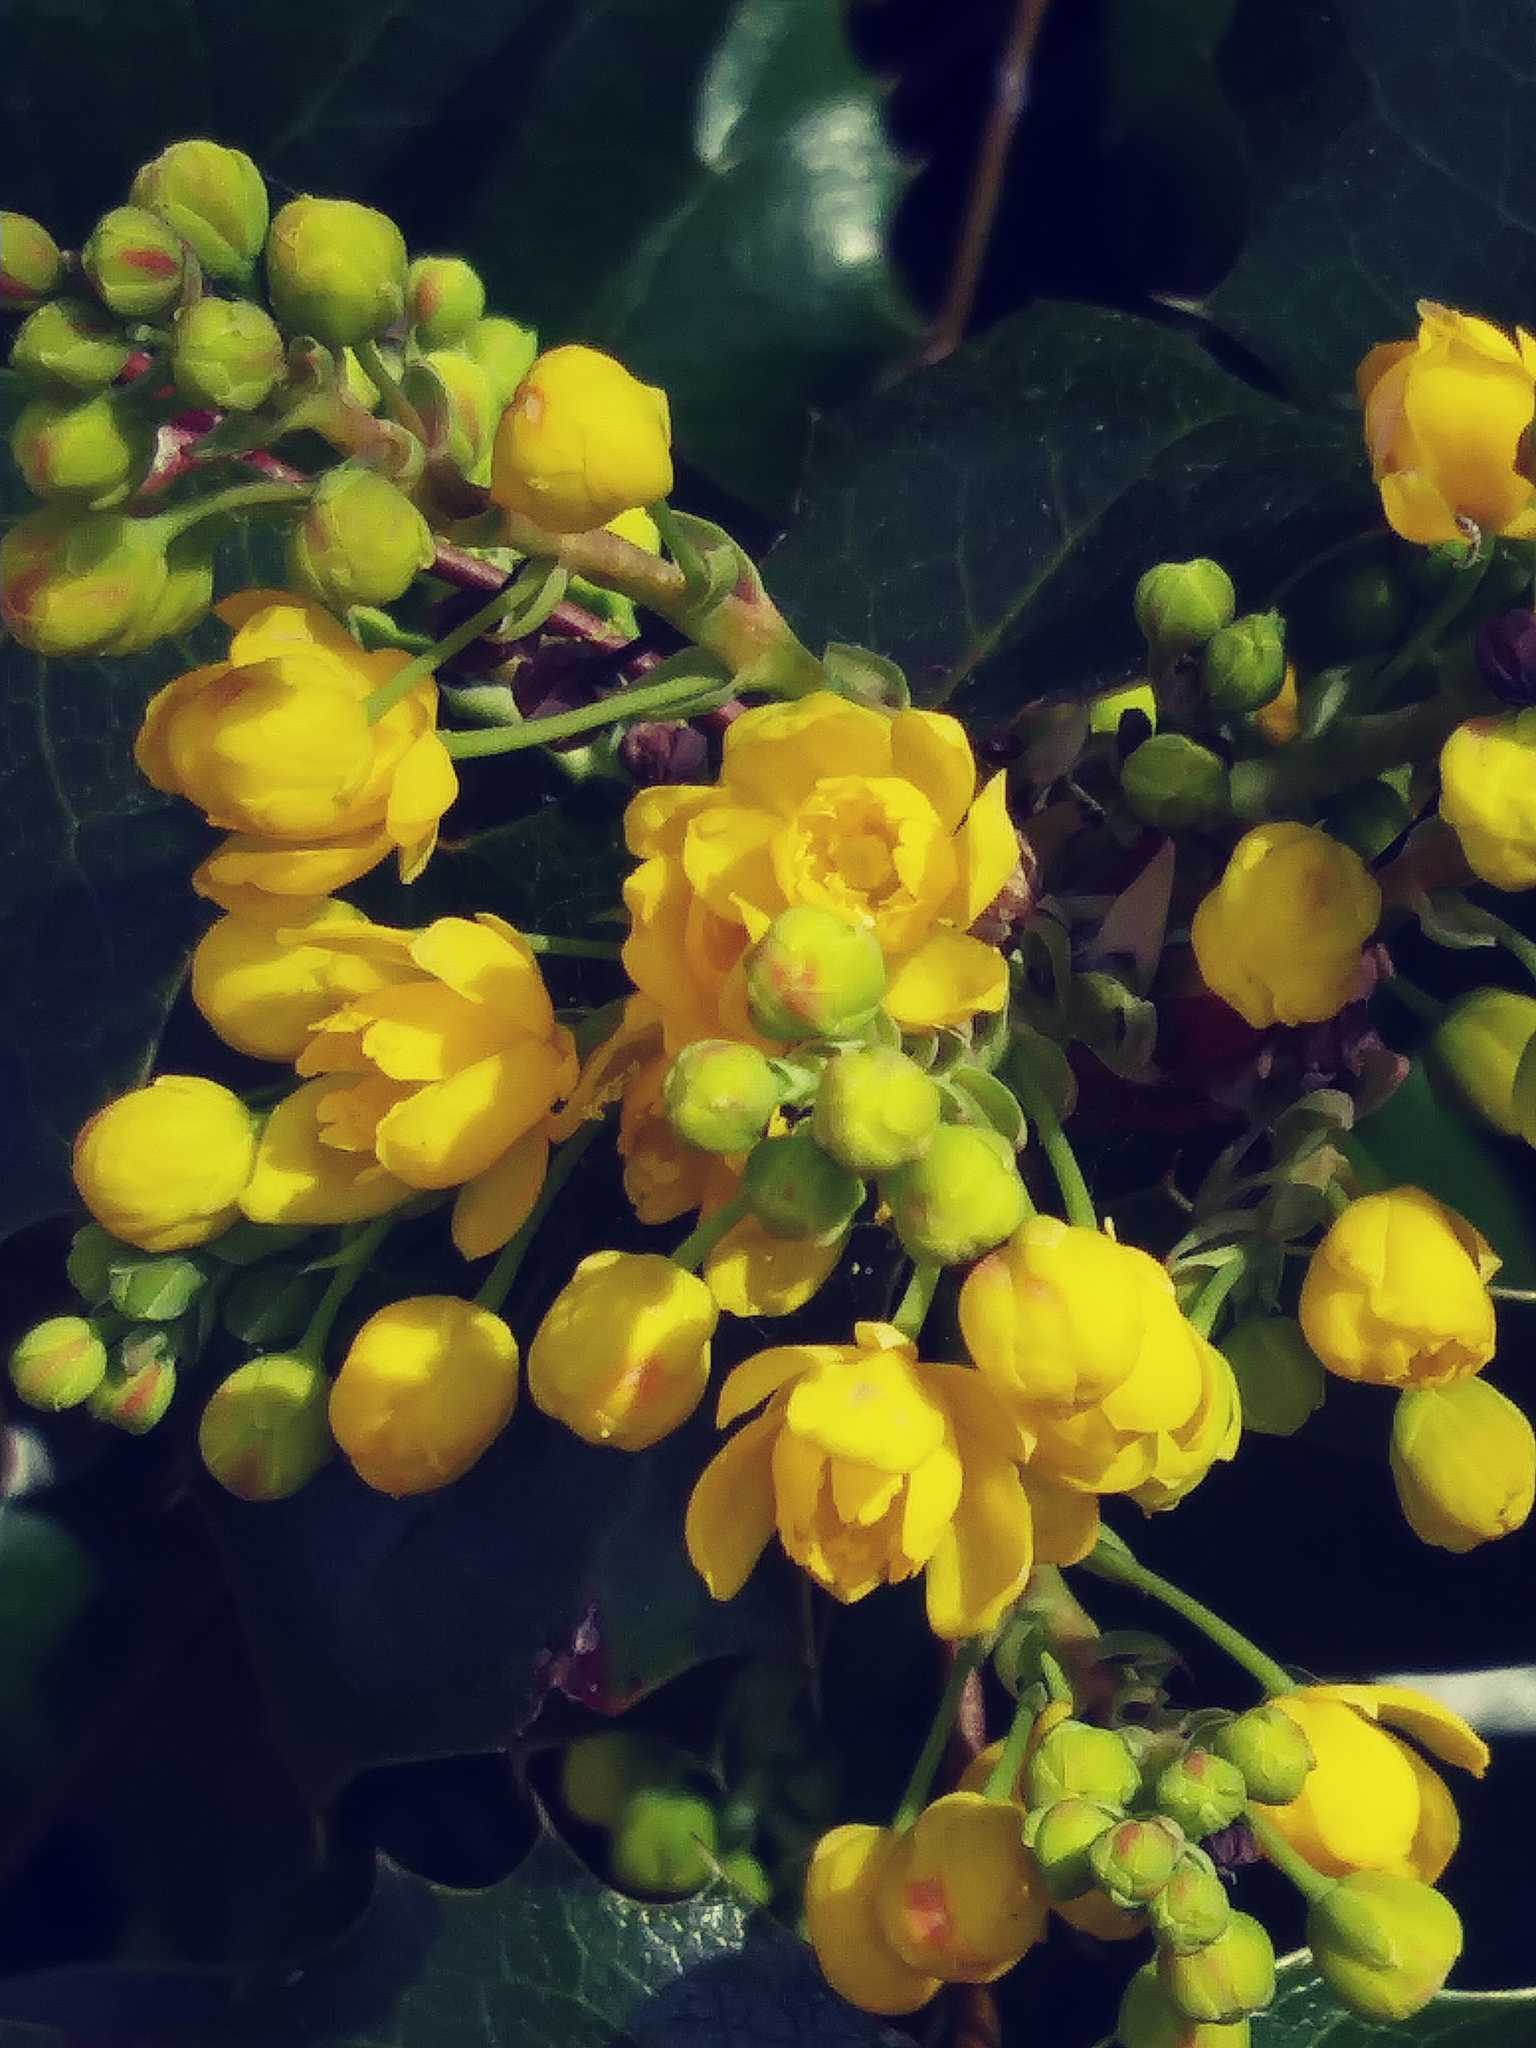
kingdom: Plantae
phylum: Tracheophyta
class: Magnoliopsida
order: Ranunculales
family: Berberidaceae
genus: Mahonia
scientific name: Mahonia repens
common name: Creeping oregon-grape
